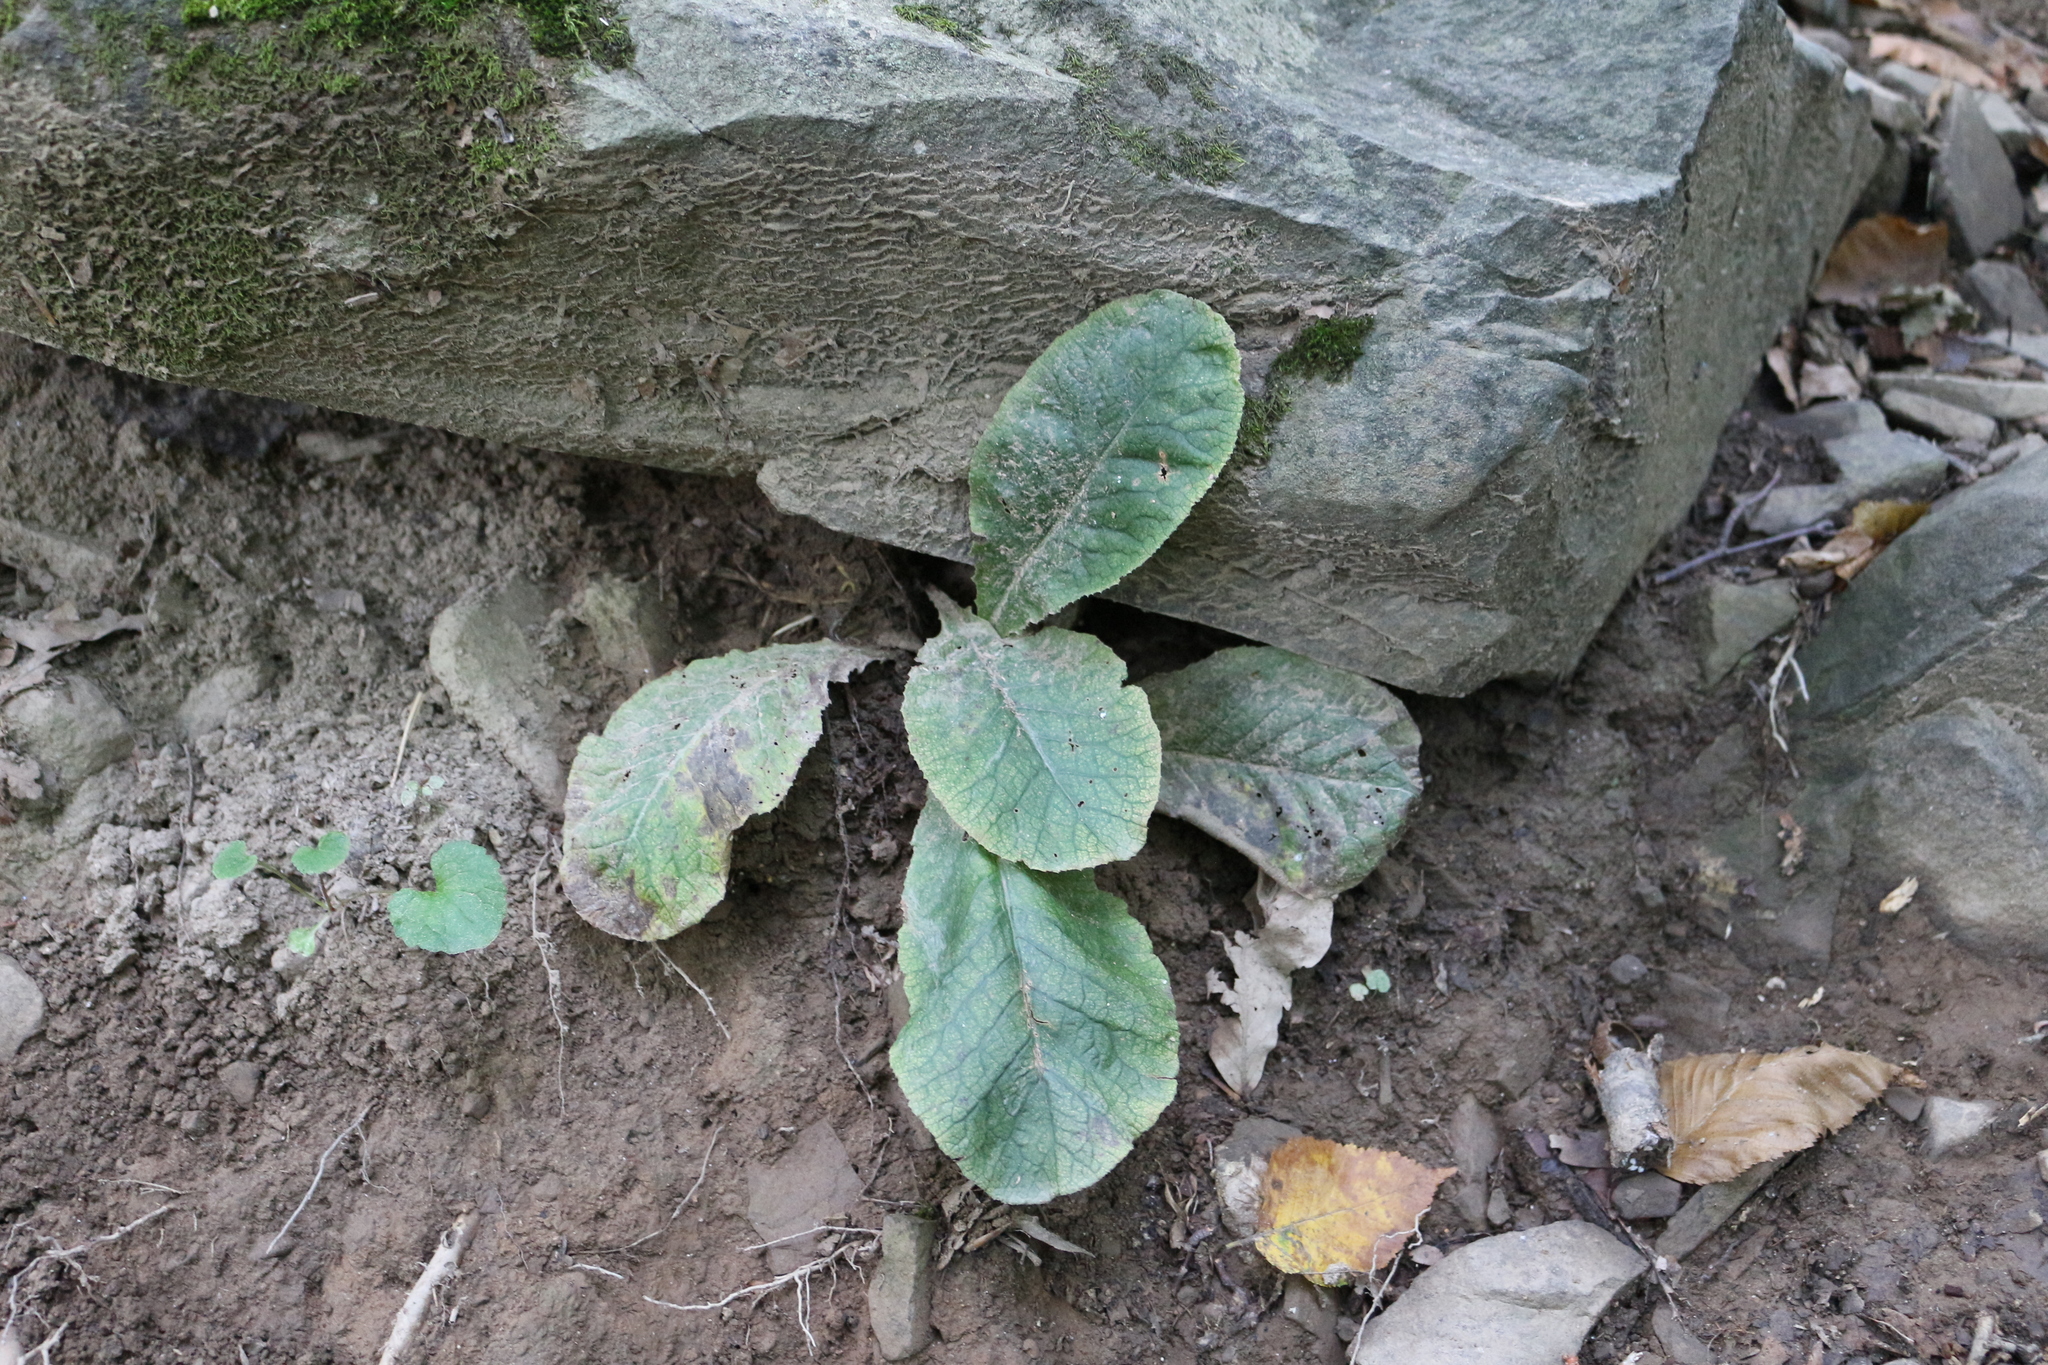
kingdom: Plantae
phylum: Tracheophyta
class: Magnoliopsida
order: Ericales
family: Primulaceae
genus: Primula
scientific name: Primula vulgaris
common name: Primrose
